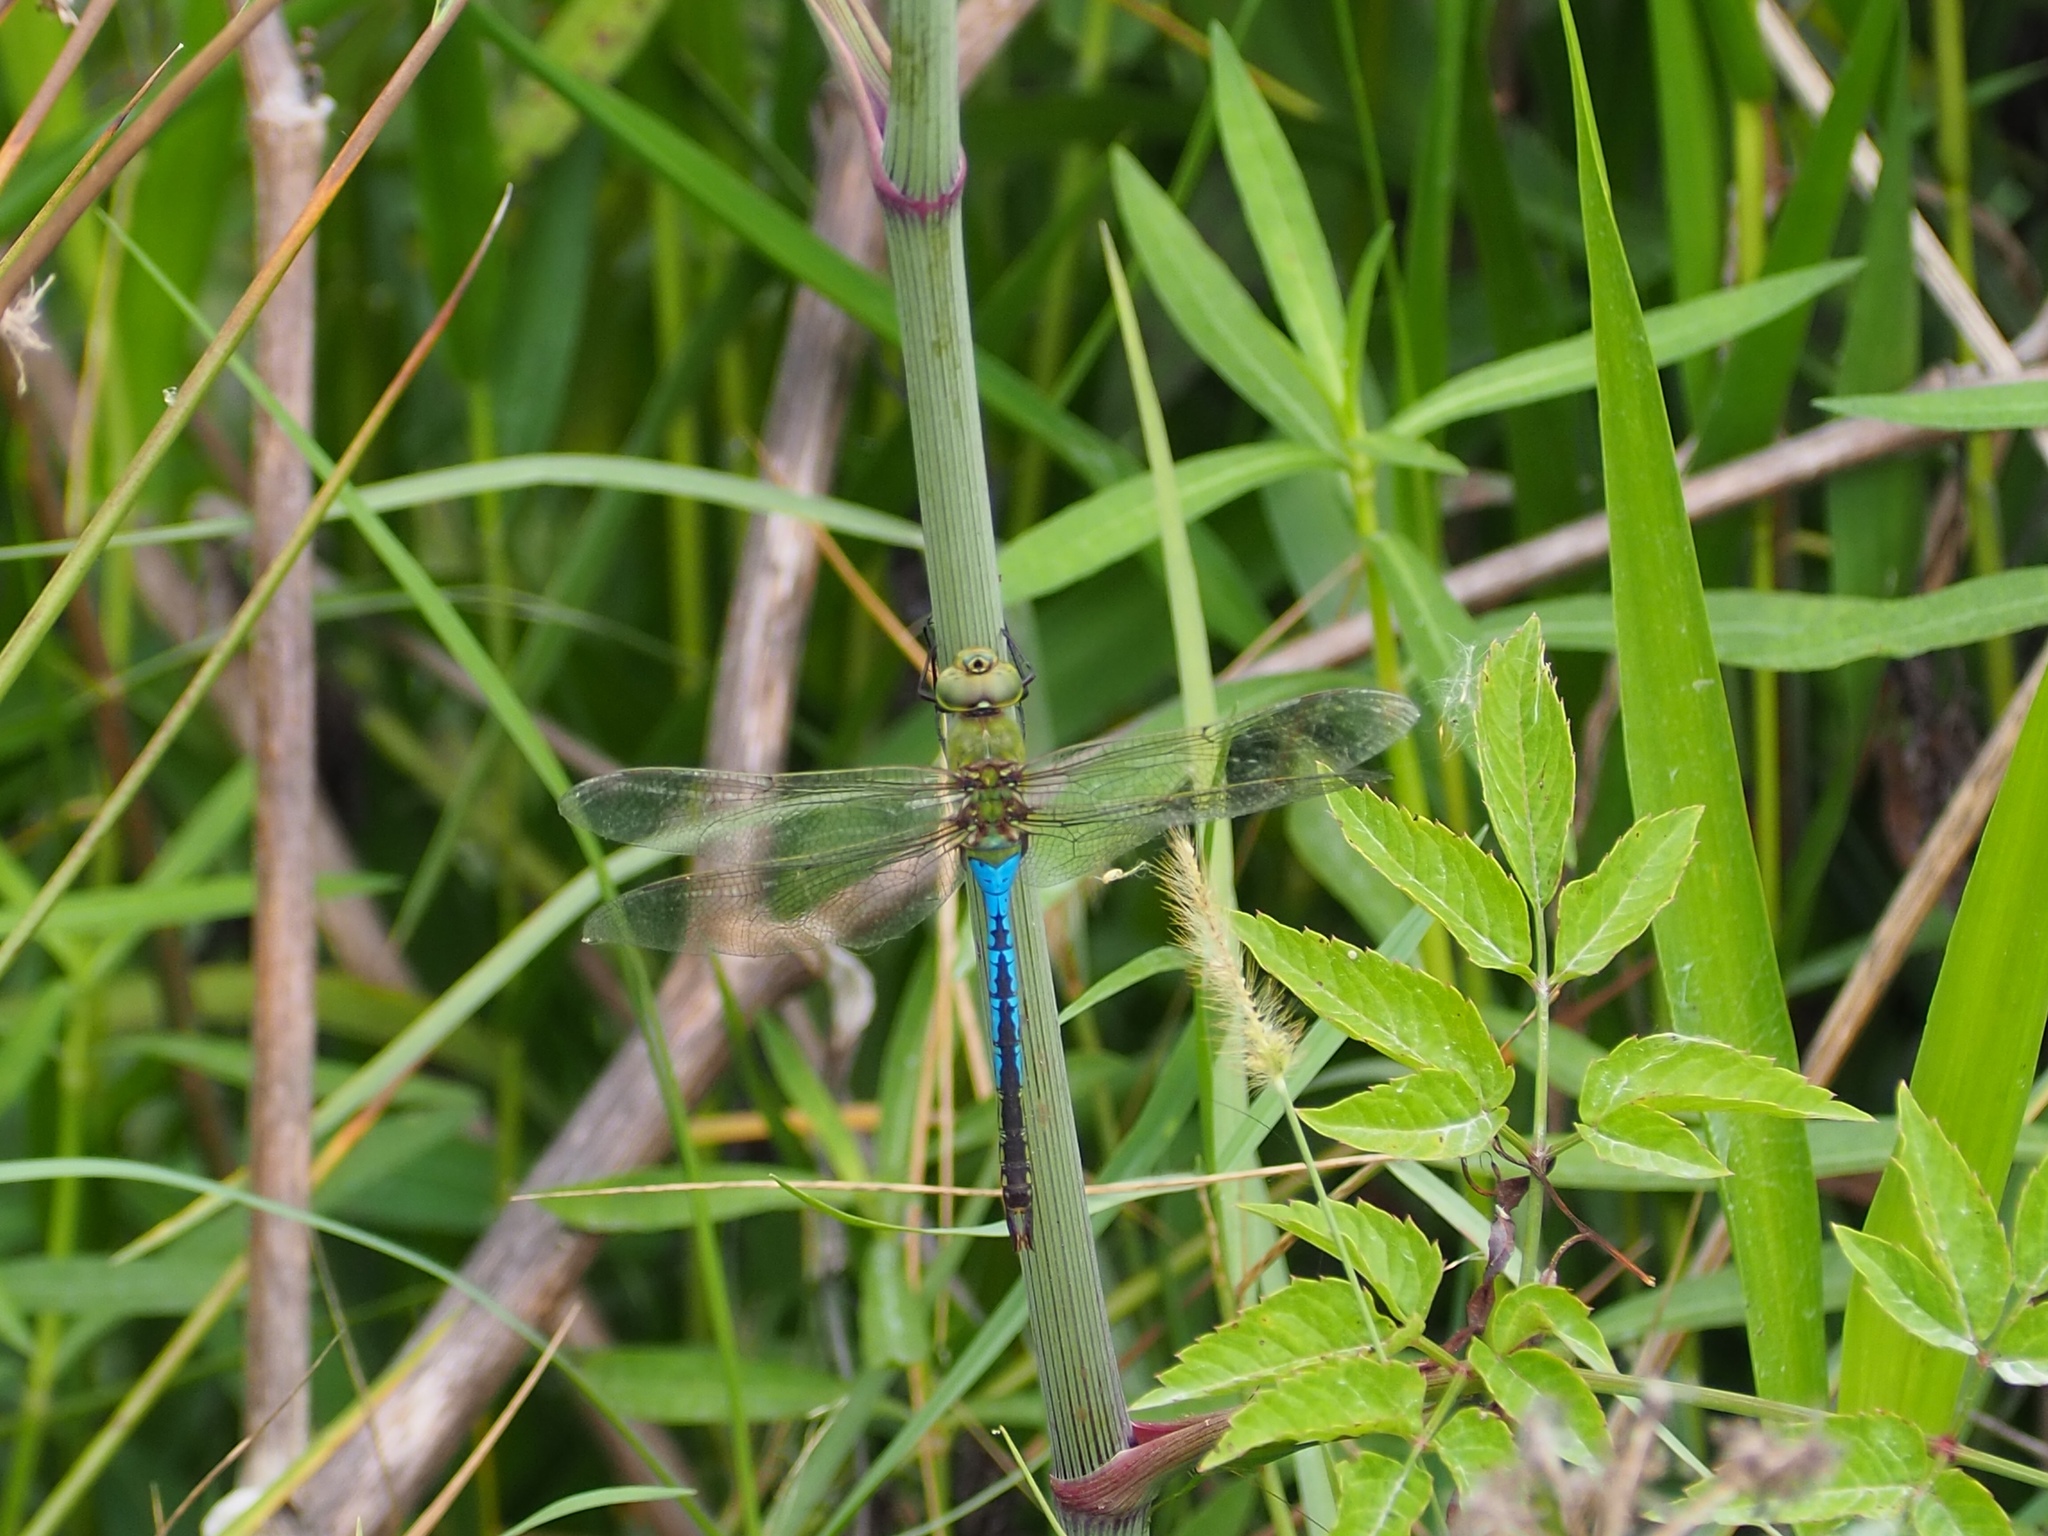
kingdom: Animalia
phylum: Arthropoda
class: Insecta
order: Odonata
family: Aeshnidae
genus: Anax
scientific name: Anax junius
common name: Common green darner
